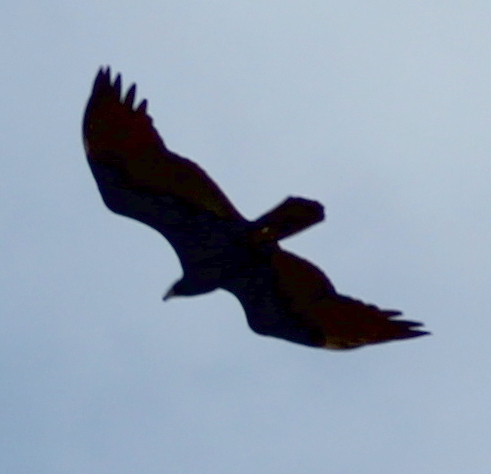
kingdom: Animalia
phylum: Chordata
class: Aves
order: Accipitriformes
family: Cathartidae
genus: Cathartes
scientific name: Cathartes aura
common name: Turkey vulture
